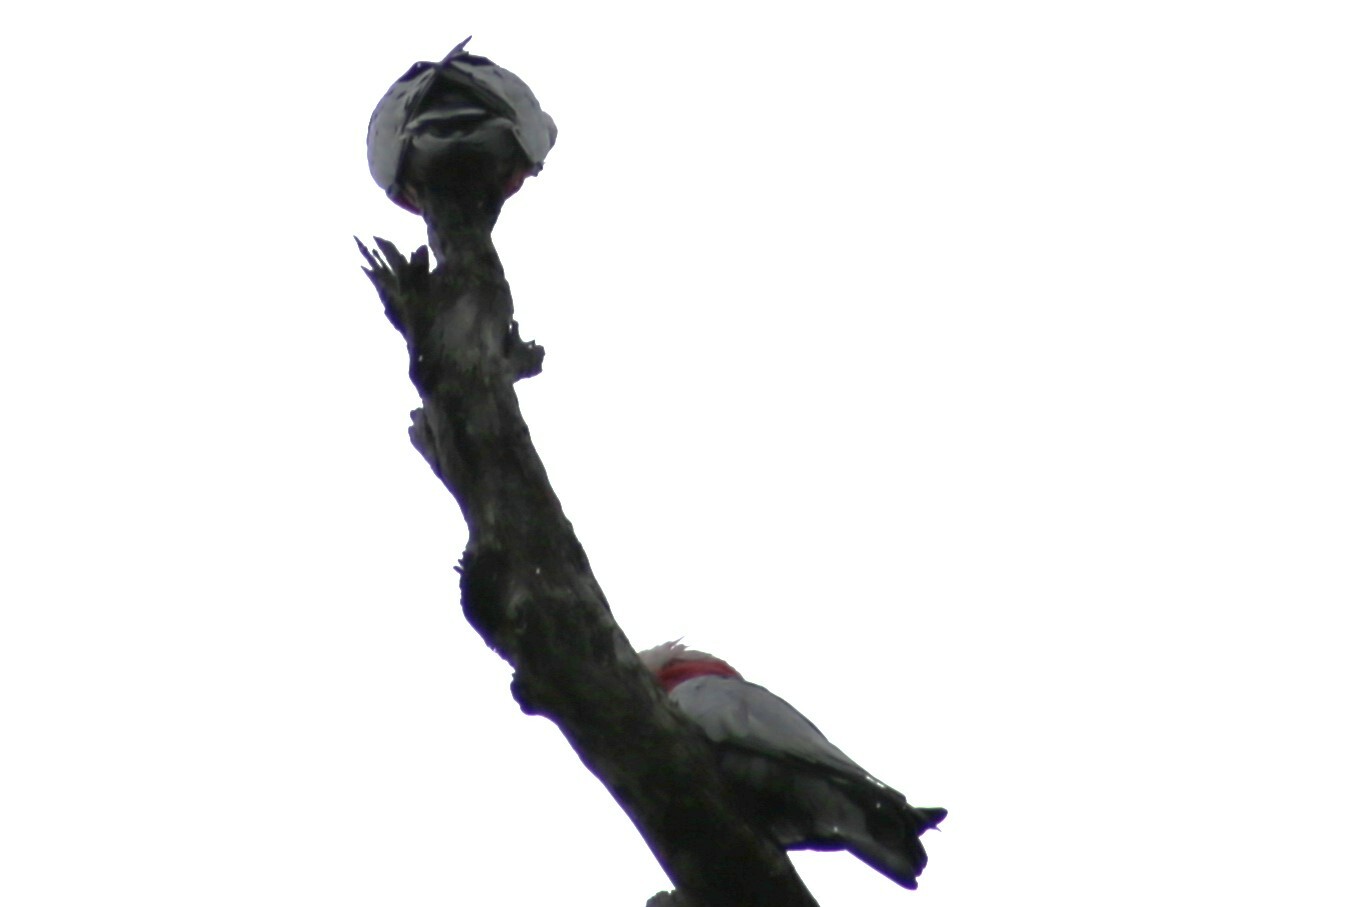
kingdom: Animalia
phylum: Chordata
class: Aves
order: Psittaciformes
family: Psittacidae
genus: Eolophus
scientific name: Eolophus roseicapilla
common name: Galah
